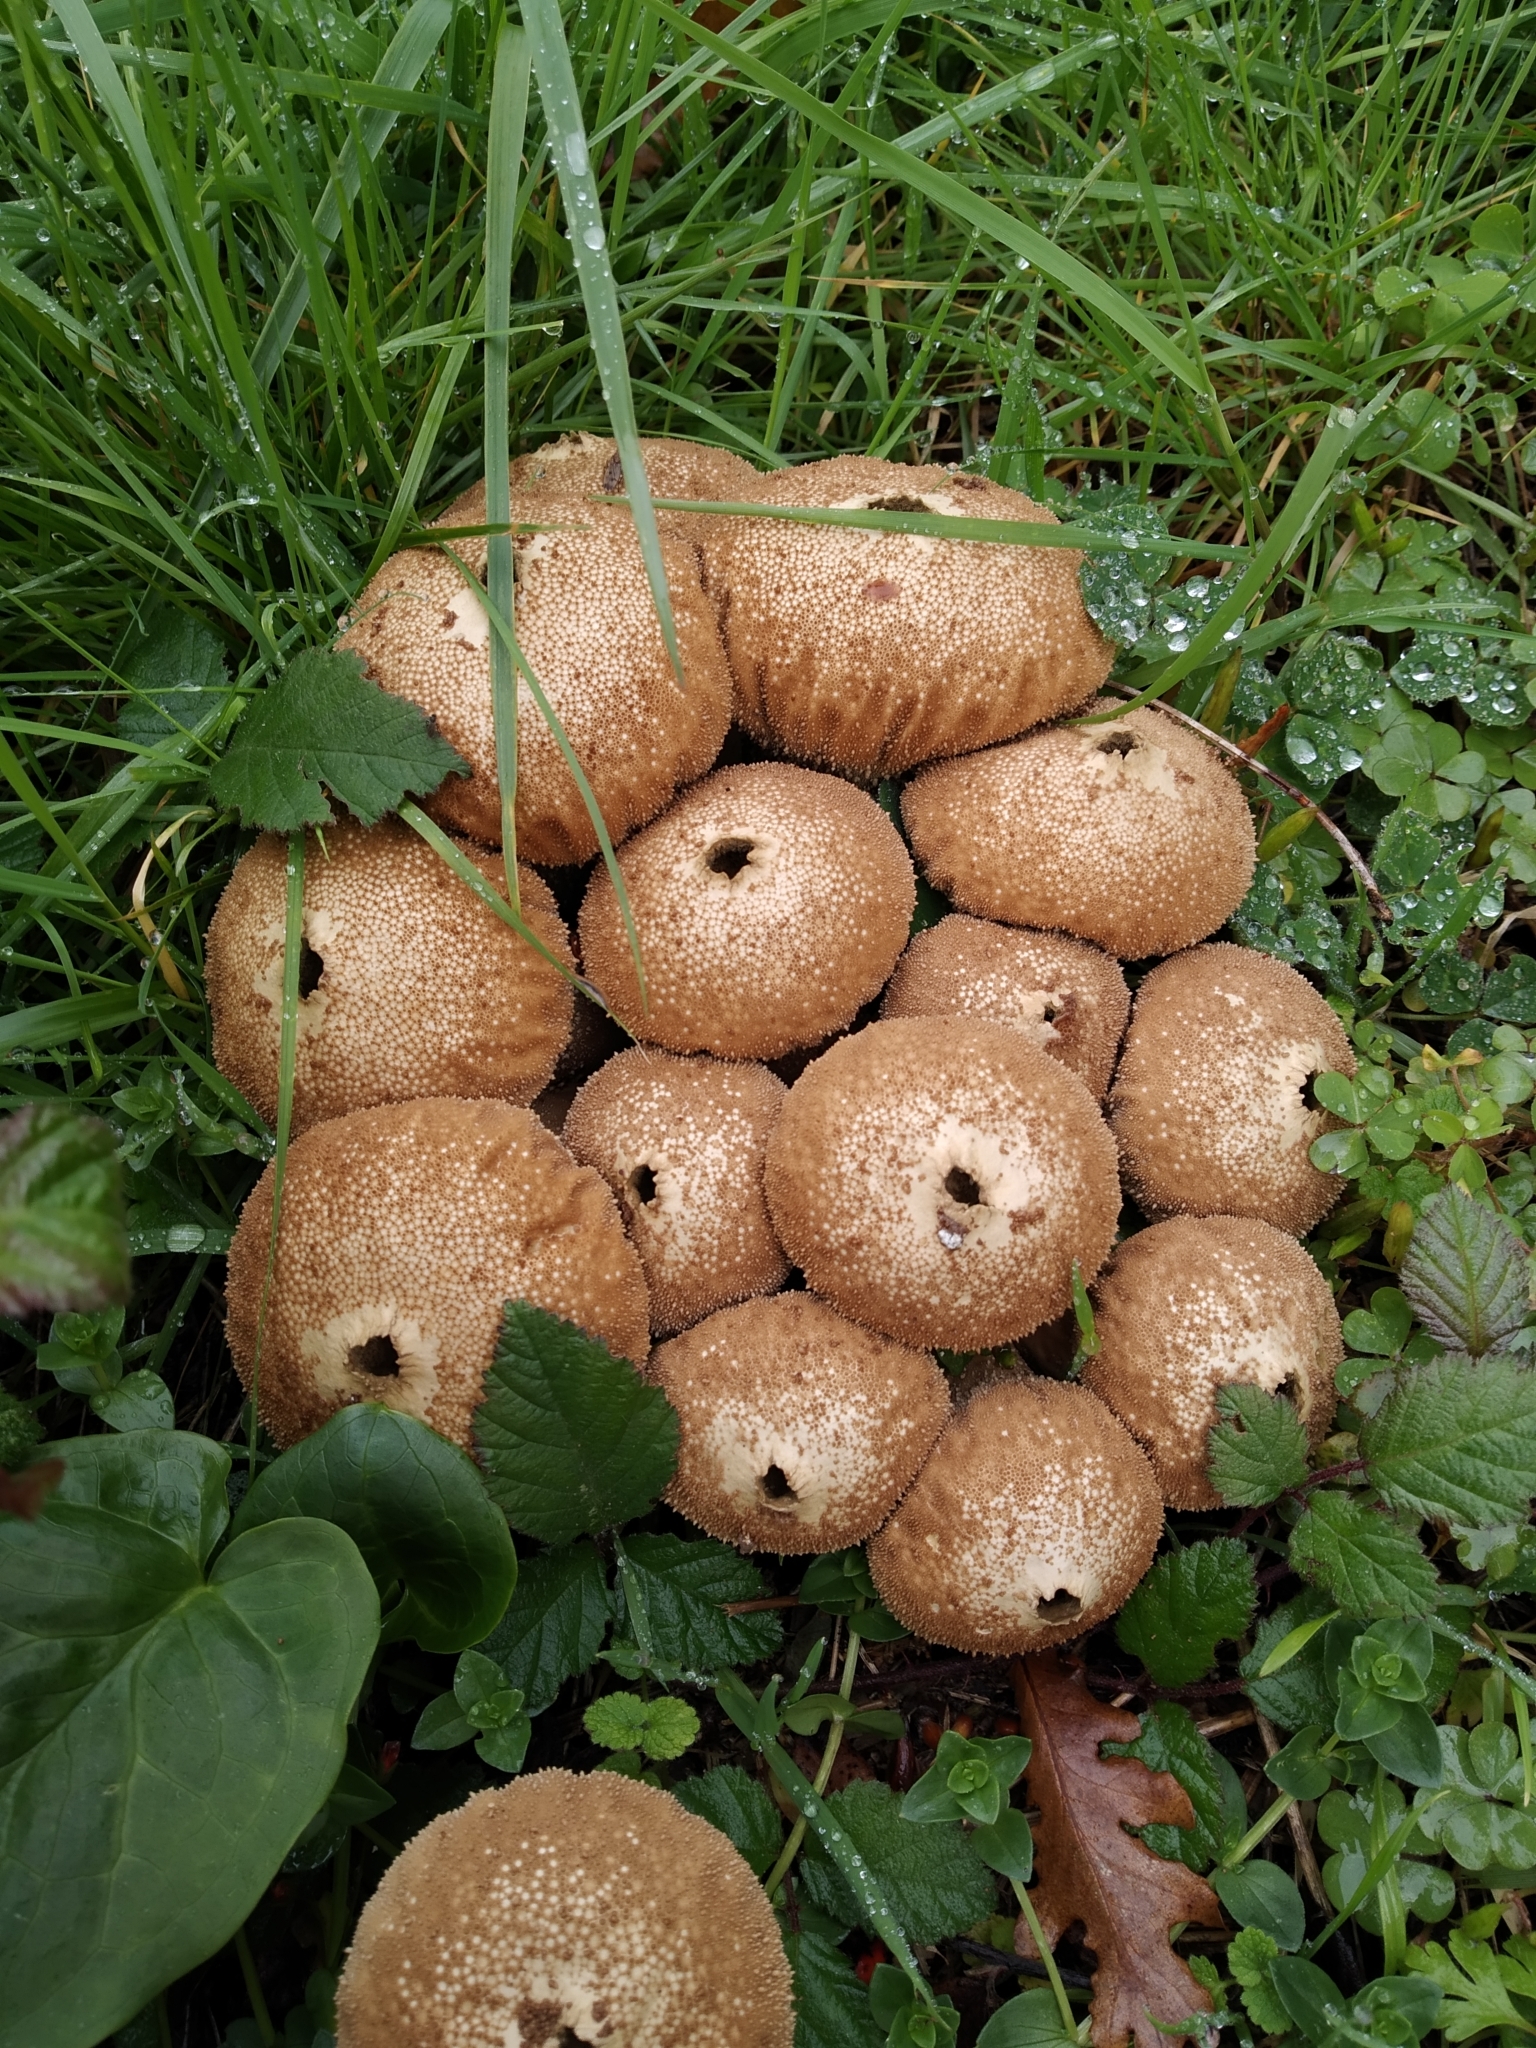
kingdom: Fungi
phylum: Basidiomycota
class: Agaricomycetes
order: Agaricales
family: Lycoperdaceae
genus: Lycoperdon
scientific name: Lycoperdon perlatum
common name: Common puffball
